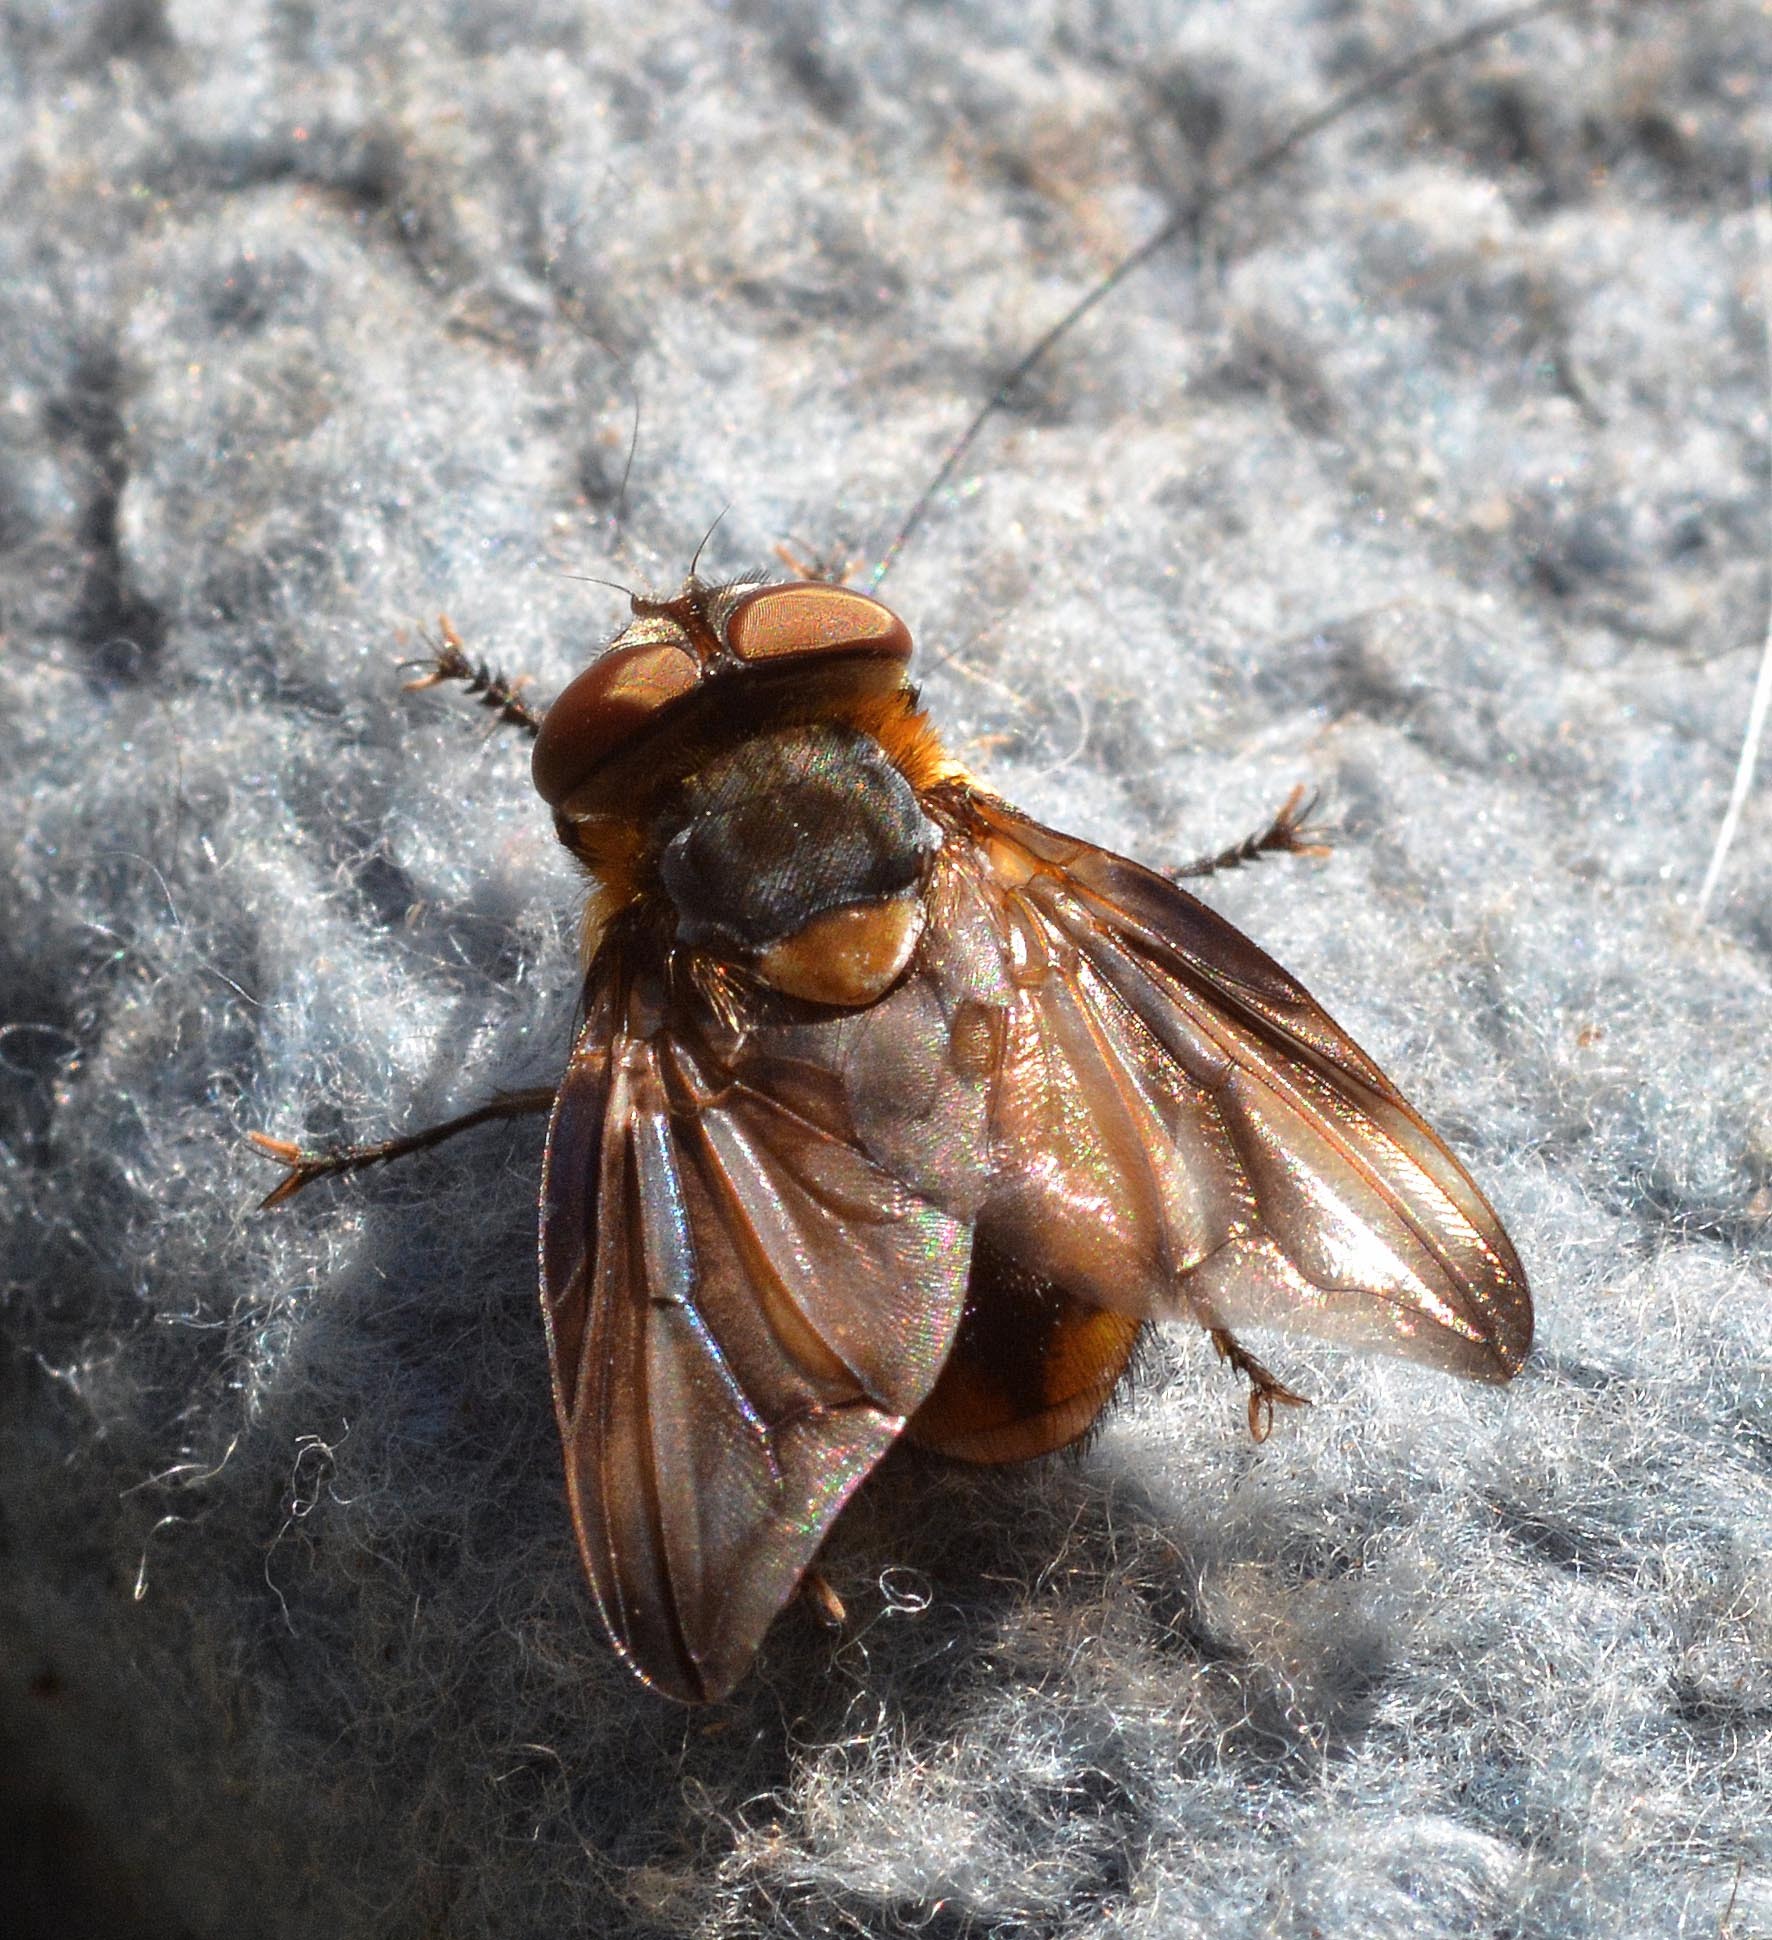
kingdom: Animalia
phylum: Arthropoda
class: Insecta
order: Diptera
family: Tachinidae
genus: Phasia
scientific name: Phasia hemiptera
